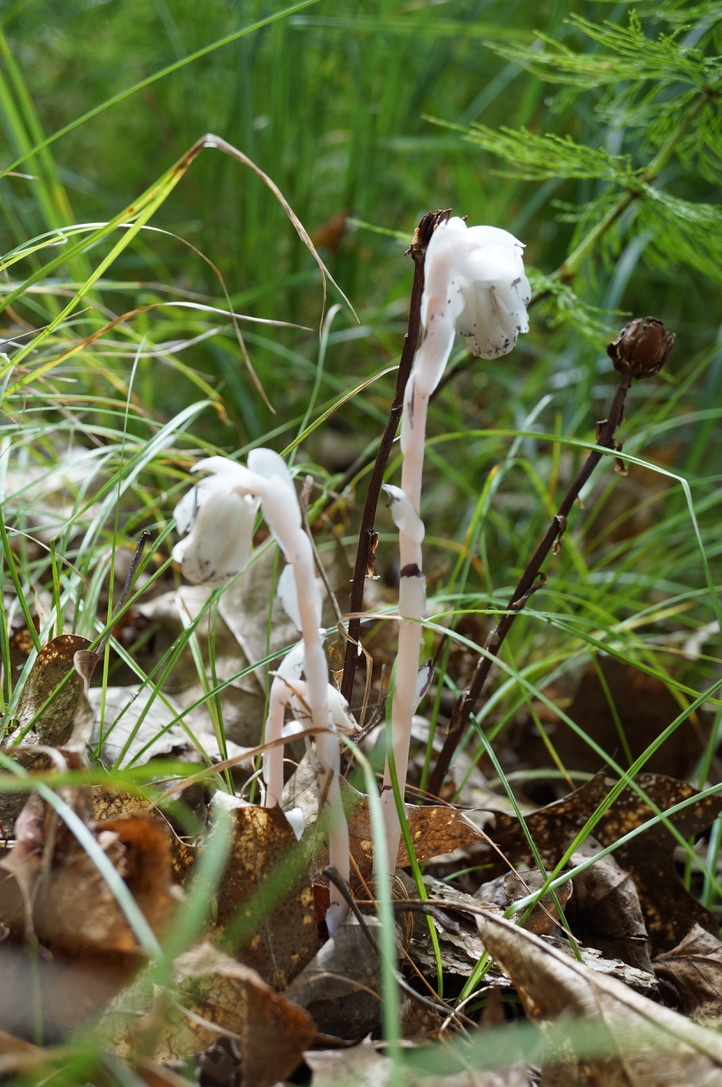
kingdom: Plantae
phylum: Tracheophyta
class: Magnoliopsida
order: Ericales
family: Ericaceae
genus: Monotropa
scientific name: Monotropa uniflora
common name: Convulsion root
